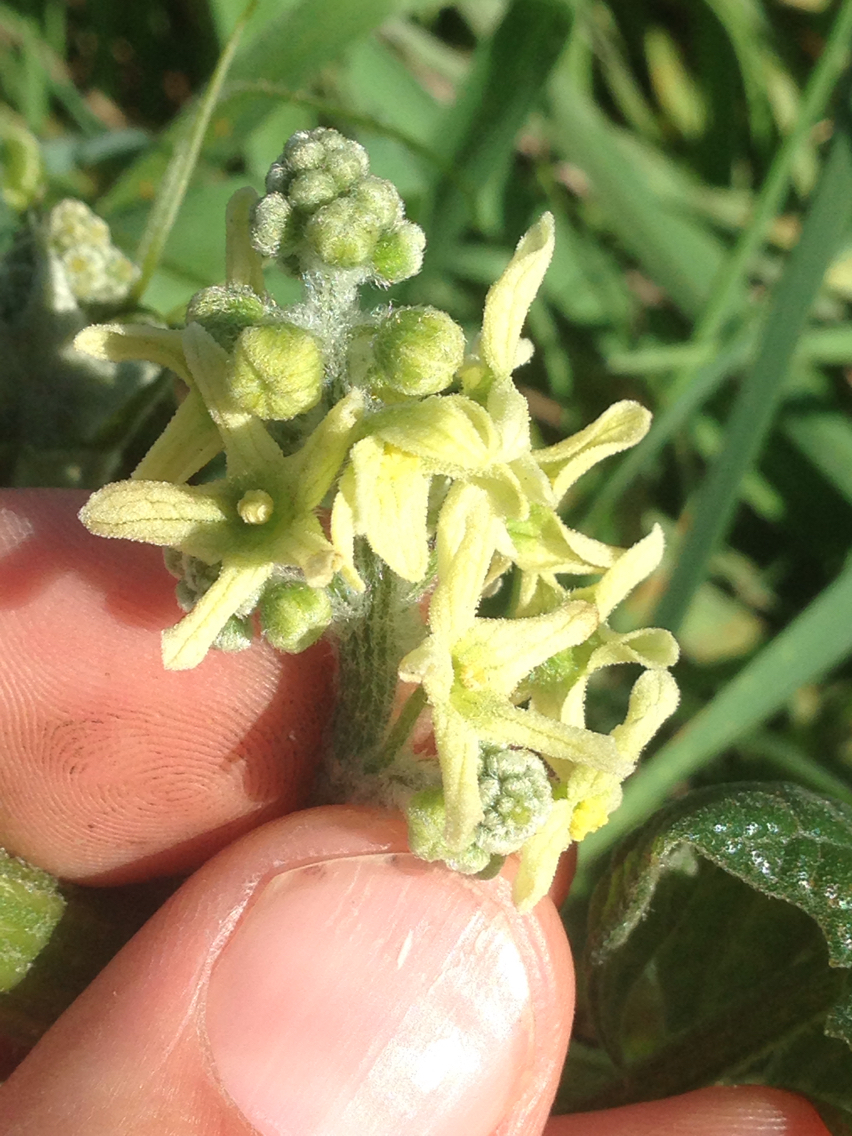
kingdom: Plantae
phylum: Tracheophyta
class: Magnoliopsida
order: Cucurbitales
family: Cucurbitaceae
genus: Marah
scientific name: Marah fabacea
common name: California manroot
